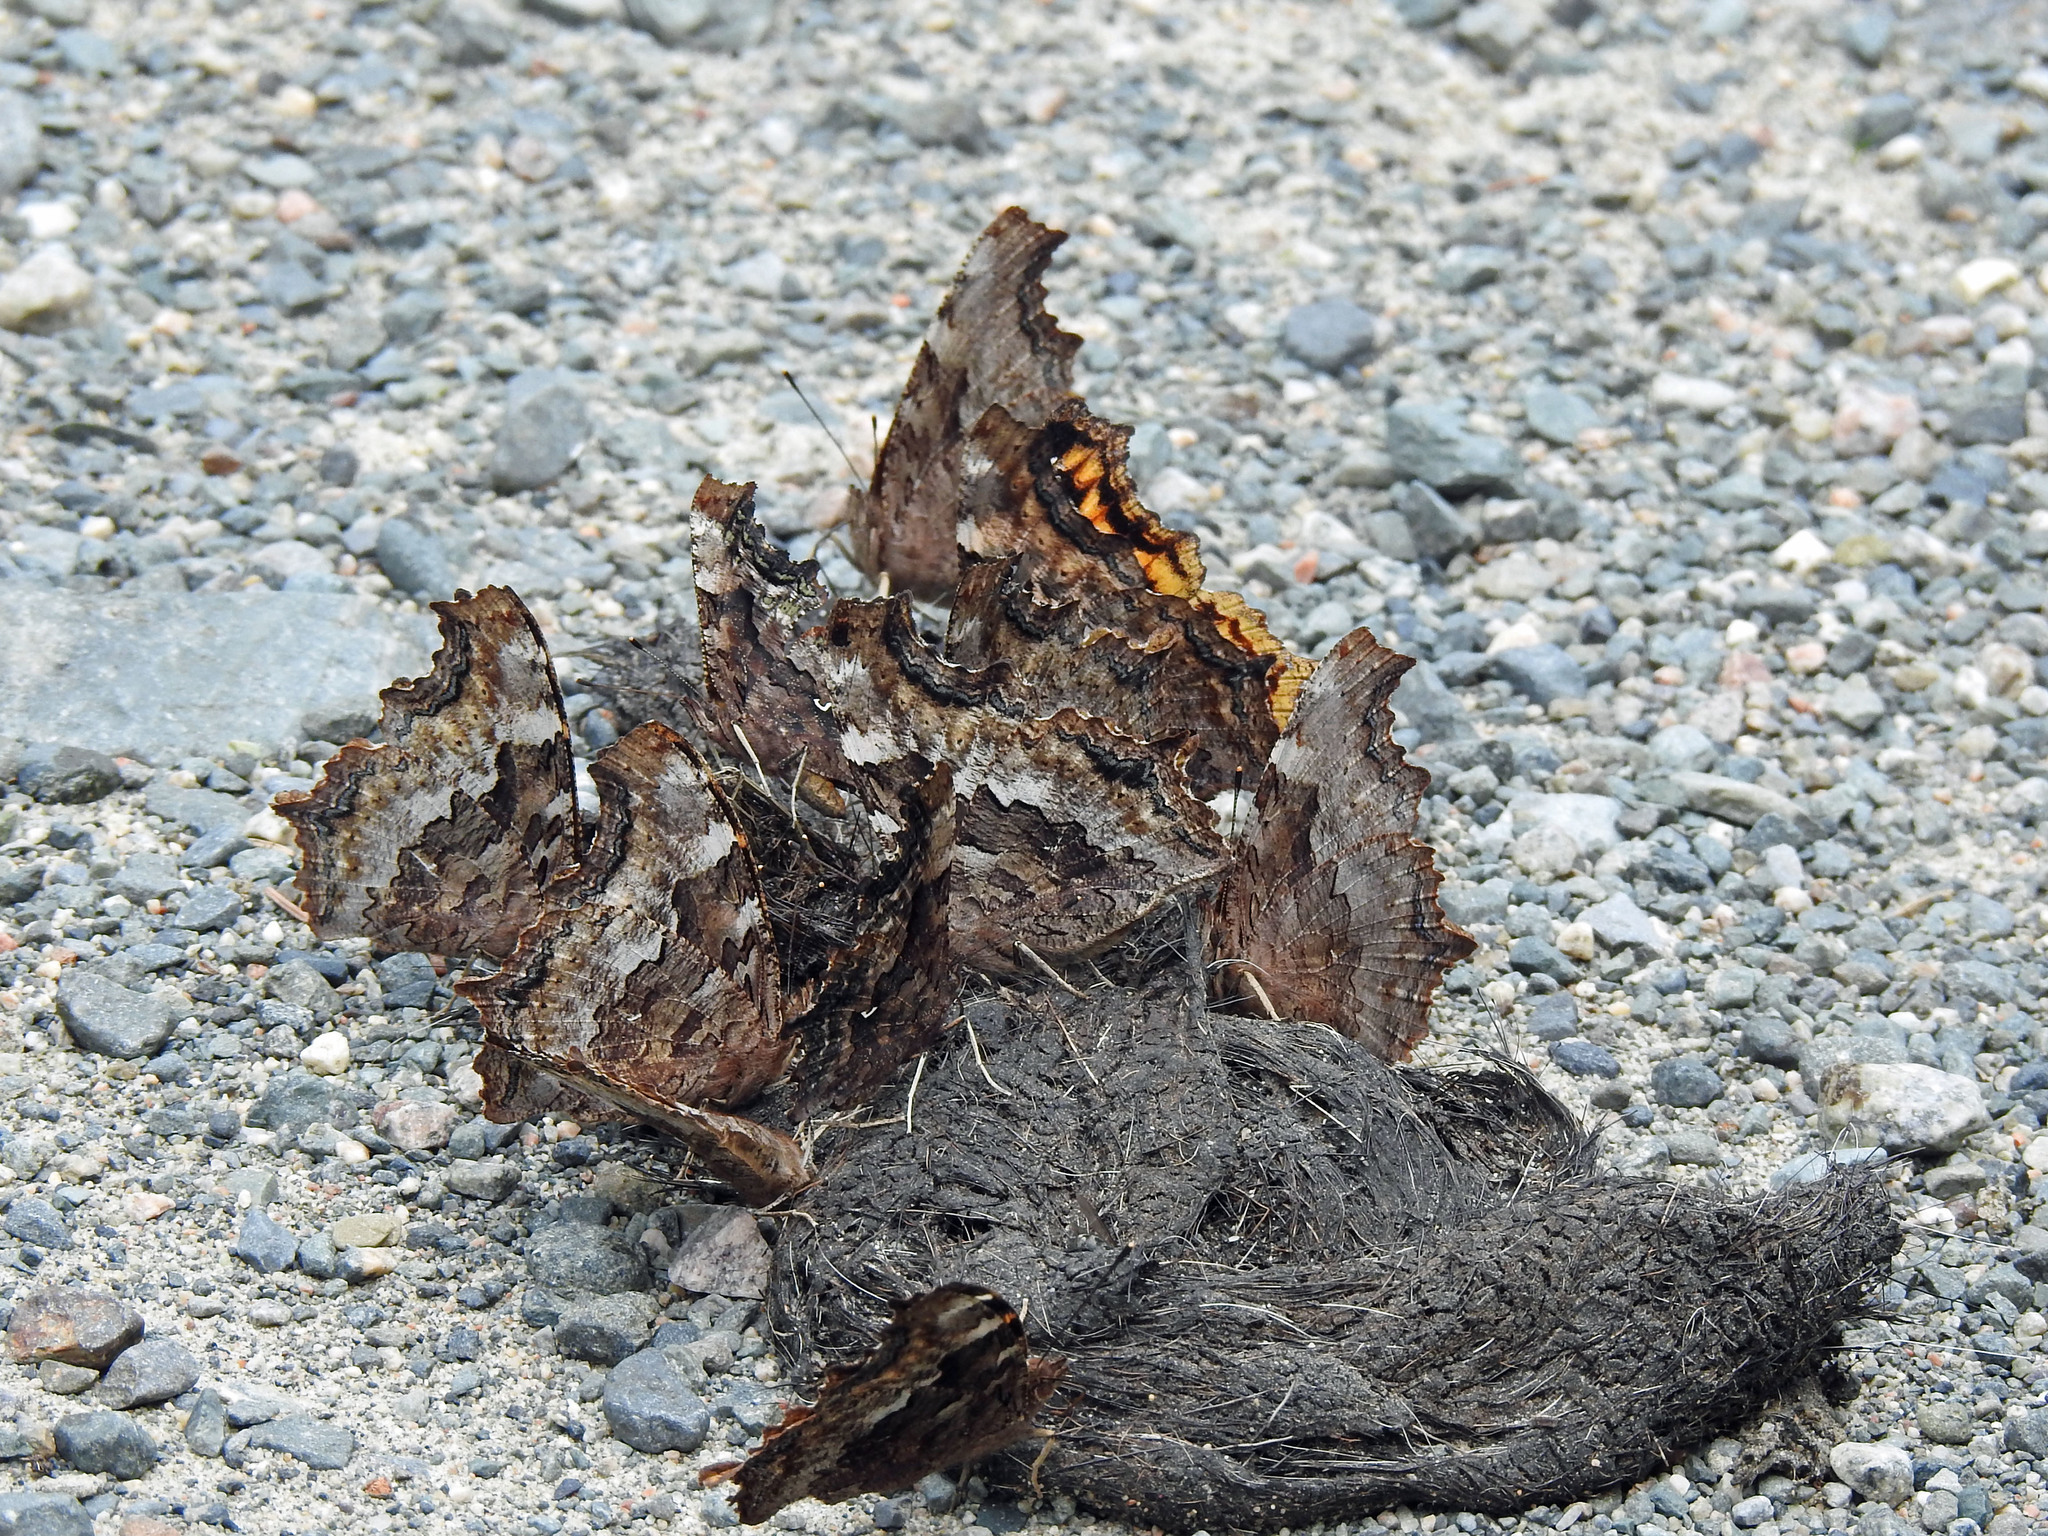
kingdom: Animalia
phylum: Arthropoda
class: Insecta
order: Lepidoptera
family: Nymphalidae
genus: Polygonia
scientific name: Polygonia vaualbum
